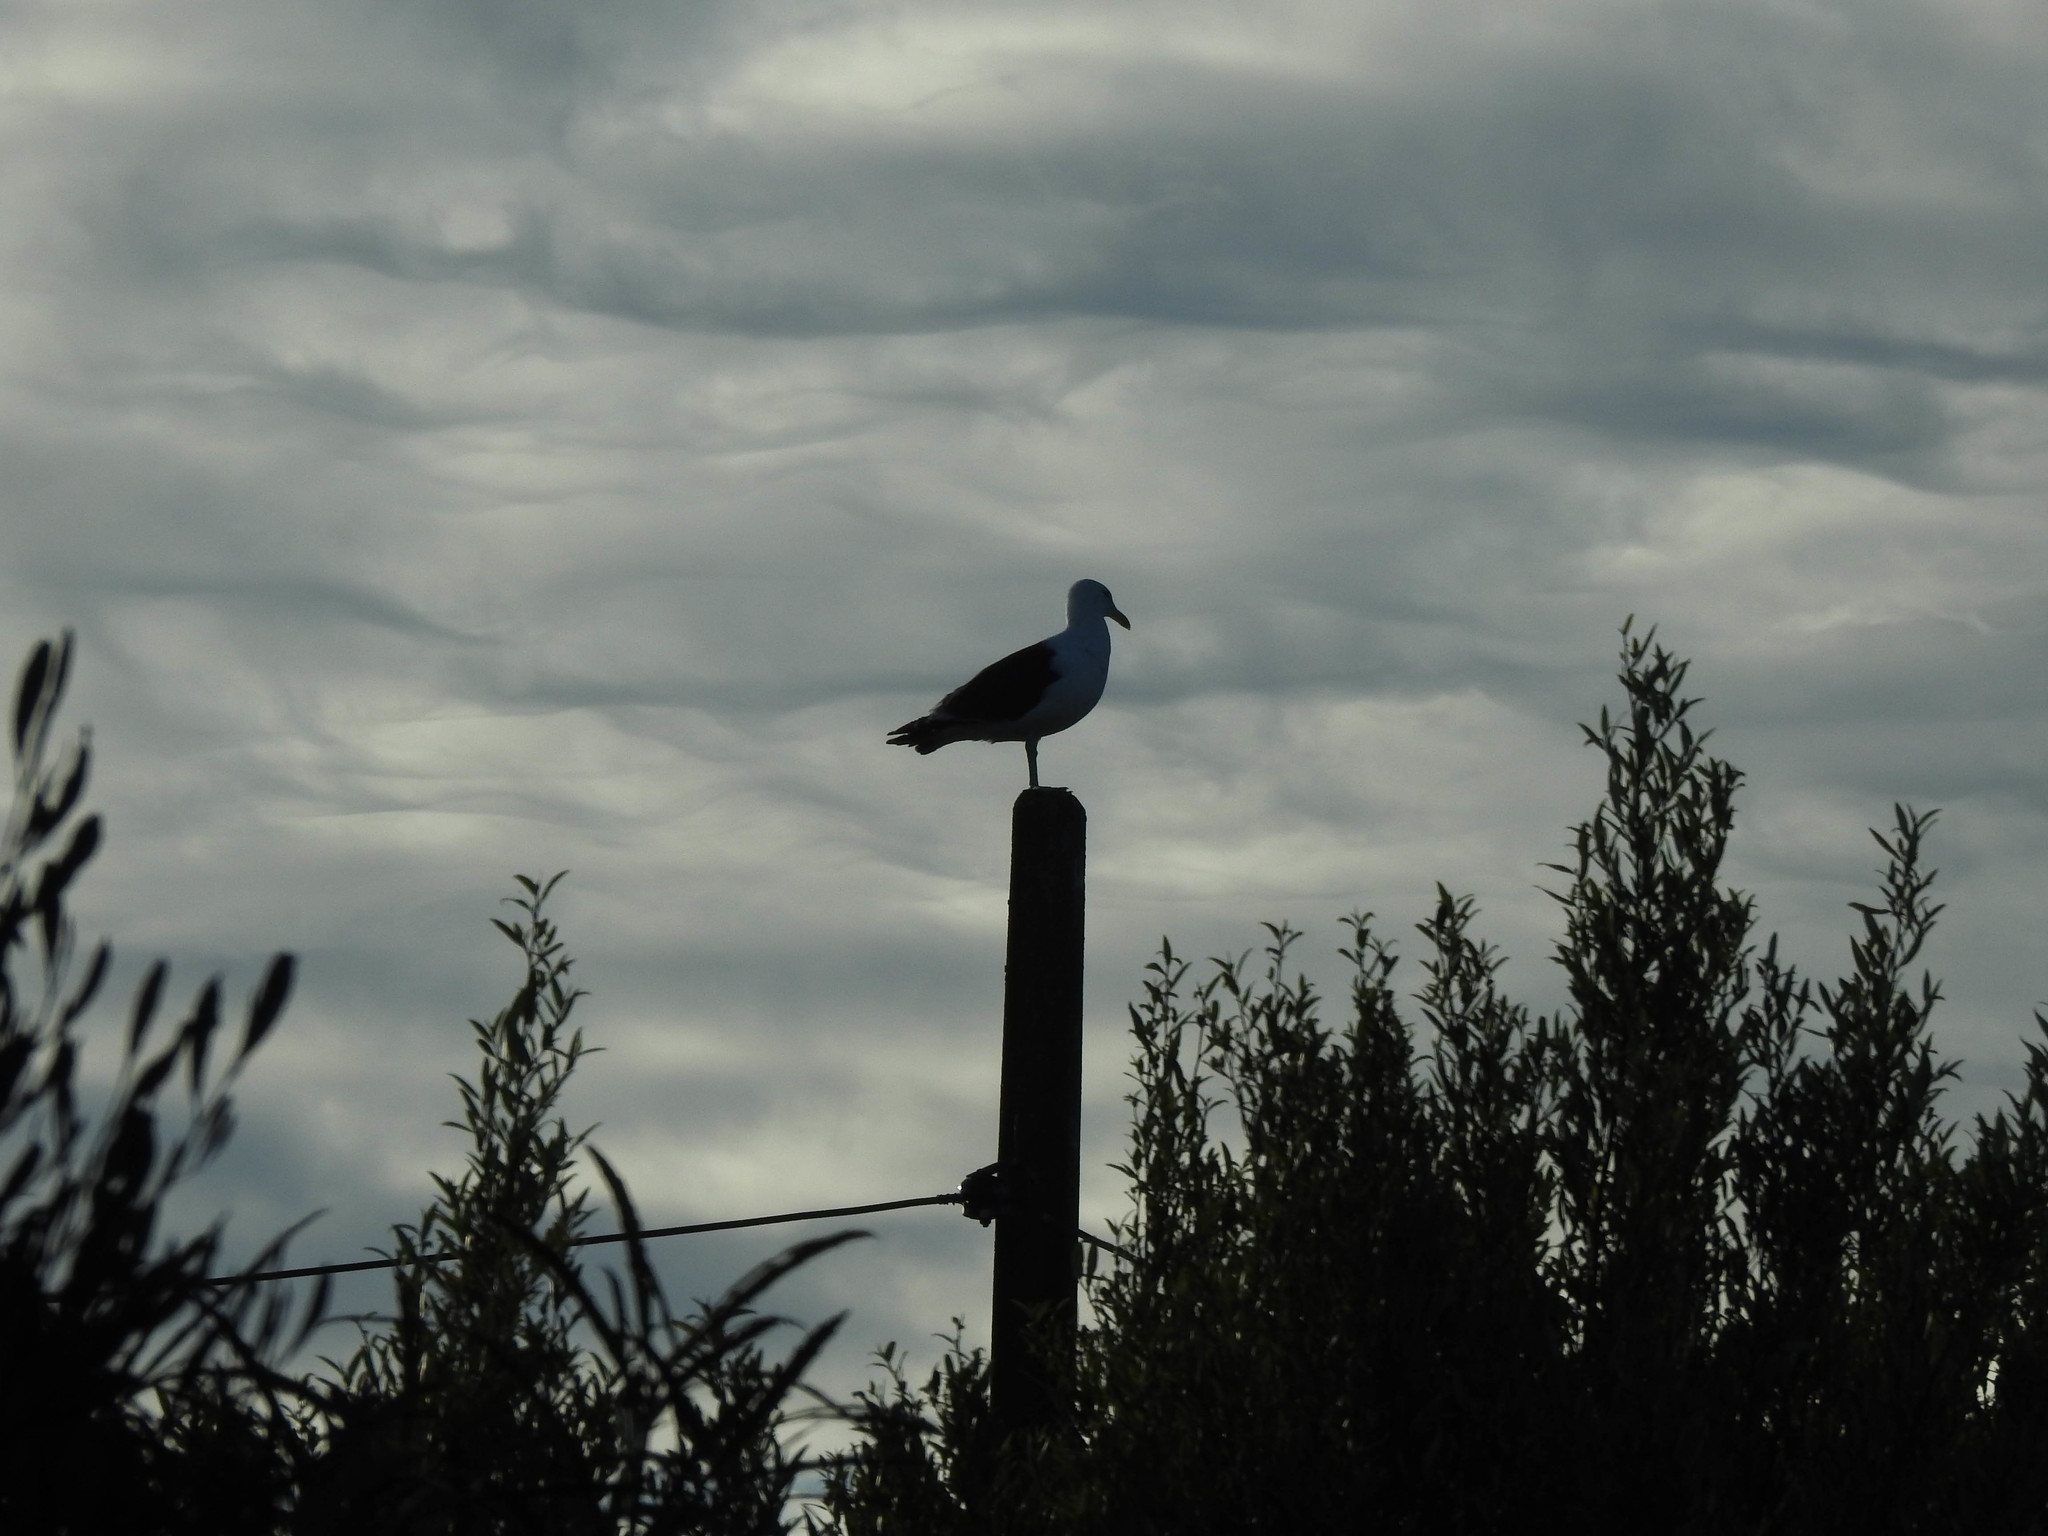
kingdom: Animalia
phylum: Chordata
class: Aves
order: Charadriiformes
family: Laridae
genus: Larus
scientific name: Larus dominicanus
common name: Kelp gull
